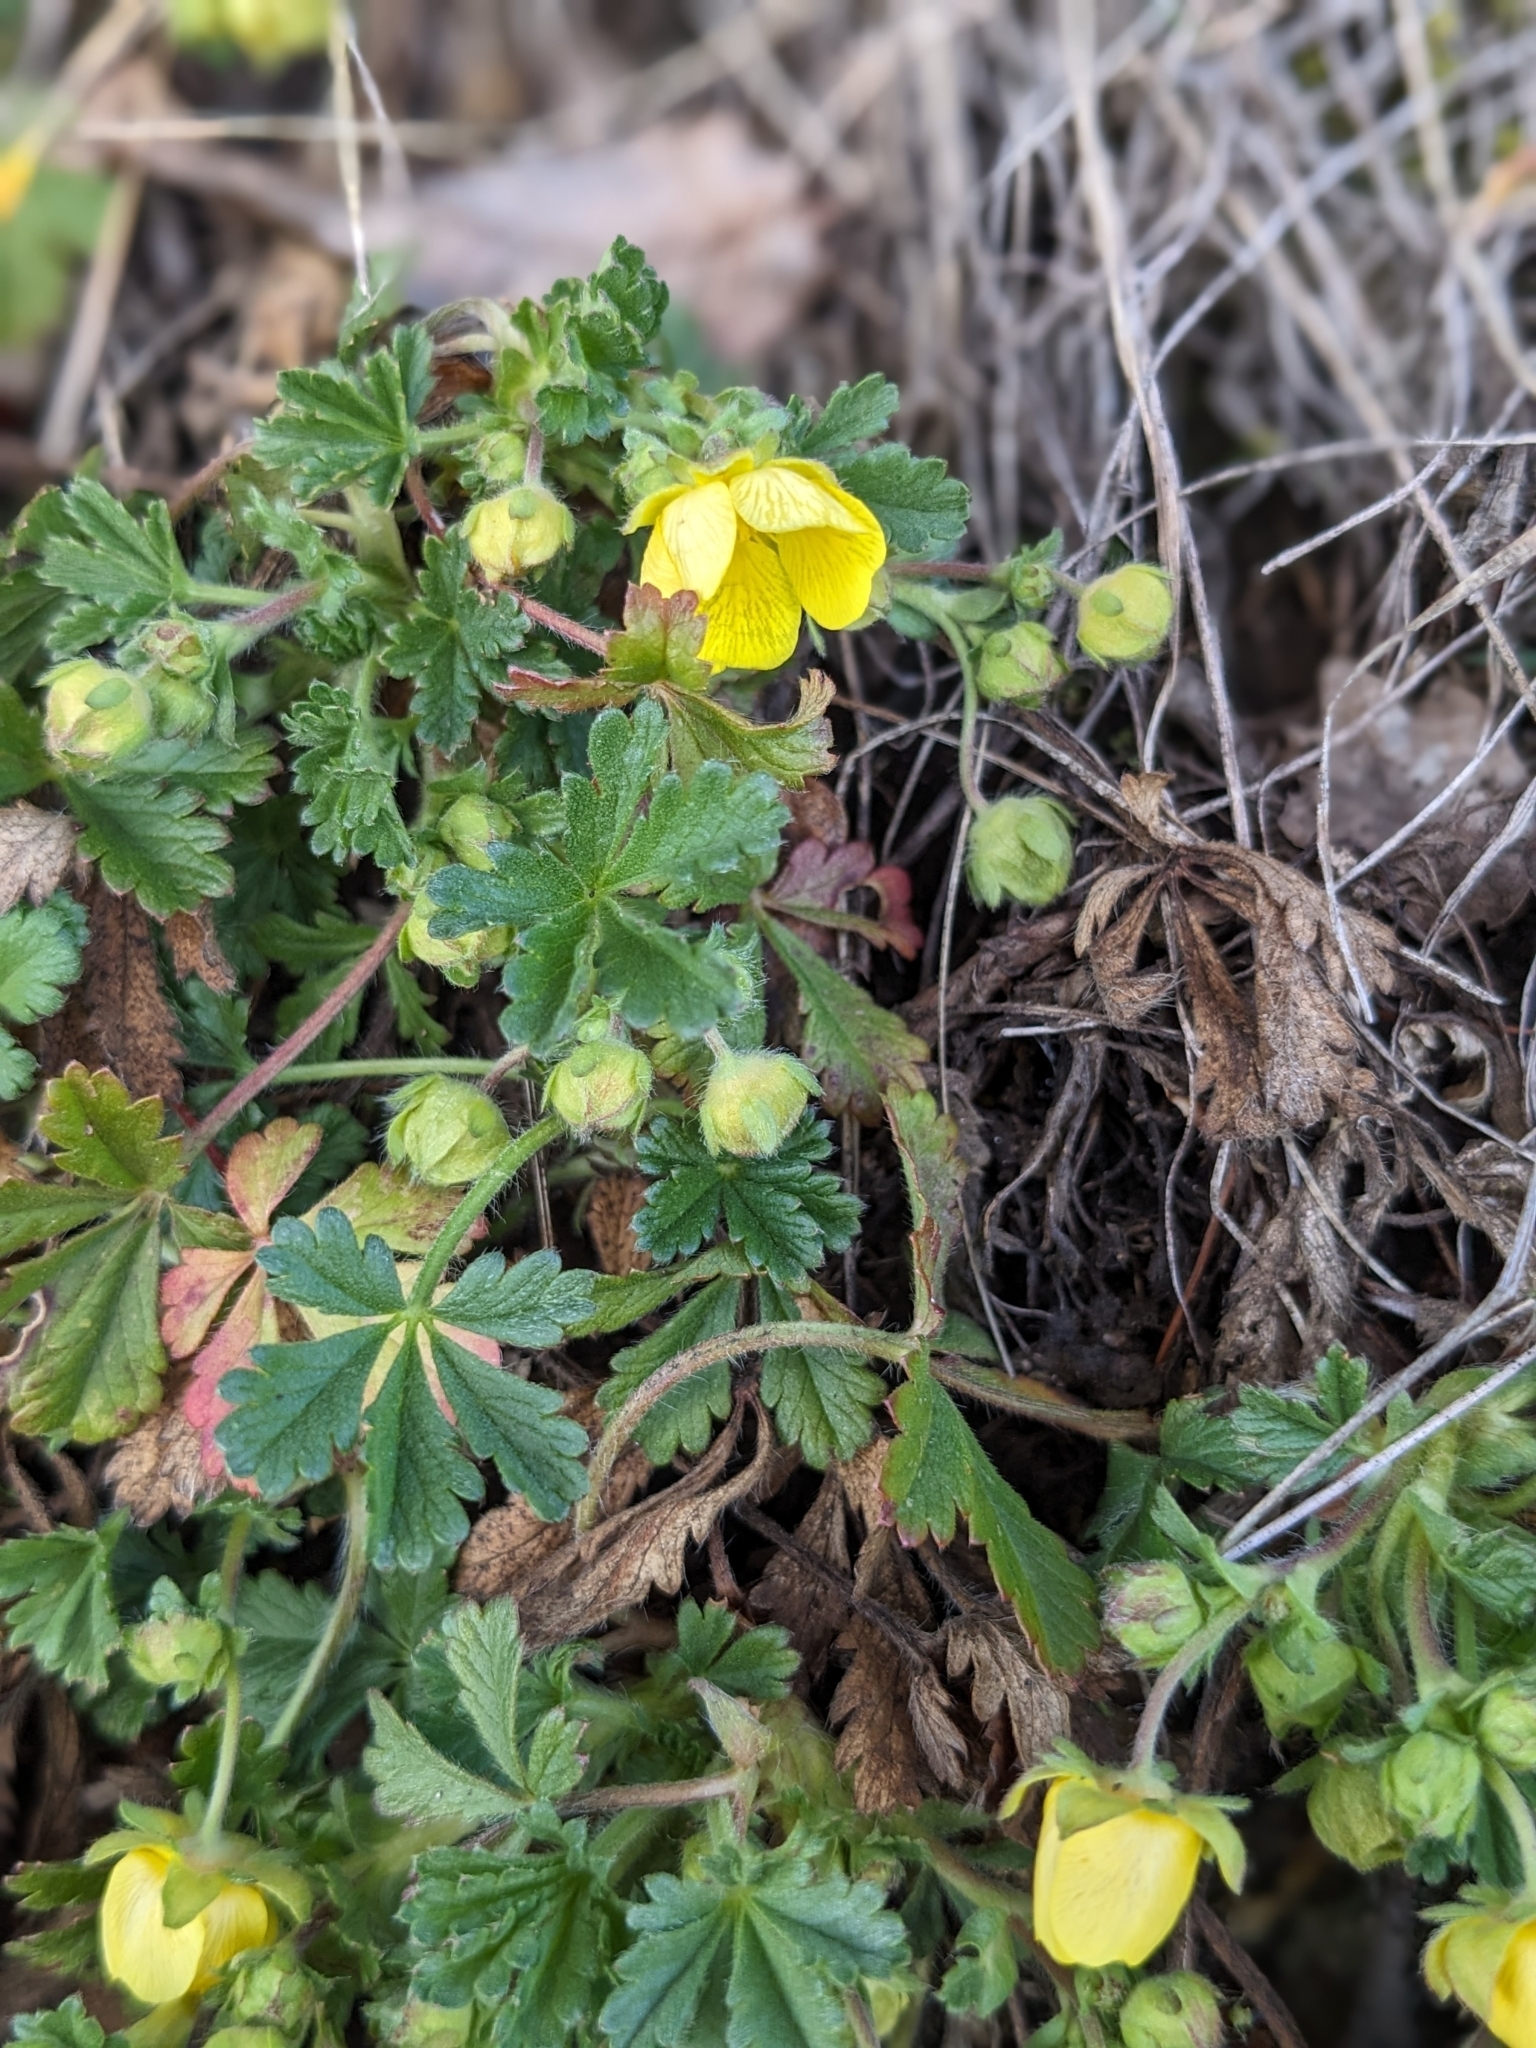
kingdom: Plantae
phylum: Tracheophyta
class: Magnoliopsida
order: Rosales
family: Rosaceae
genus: Potentilla
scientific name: Potentilla verna
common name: Spring cinquefoil
